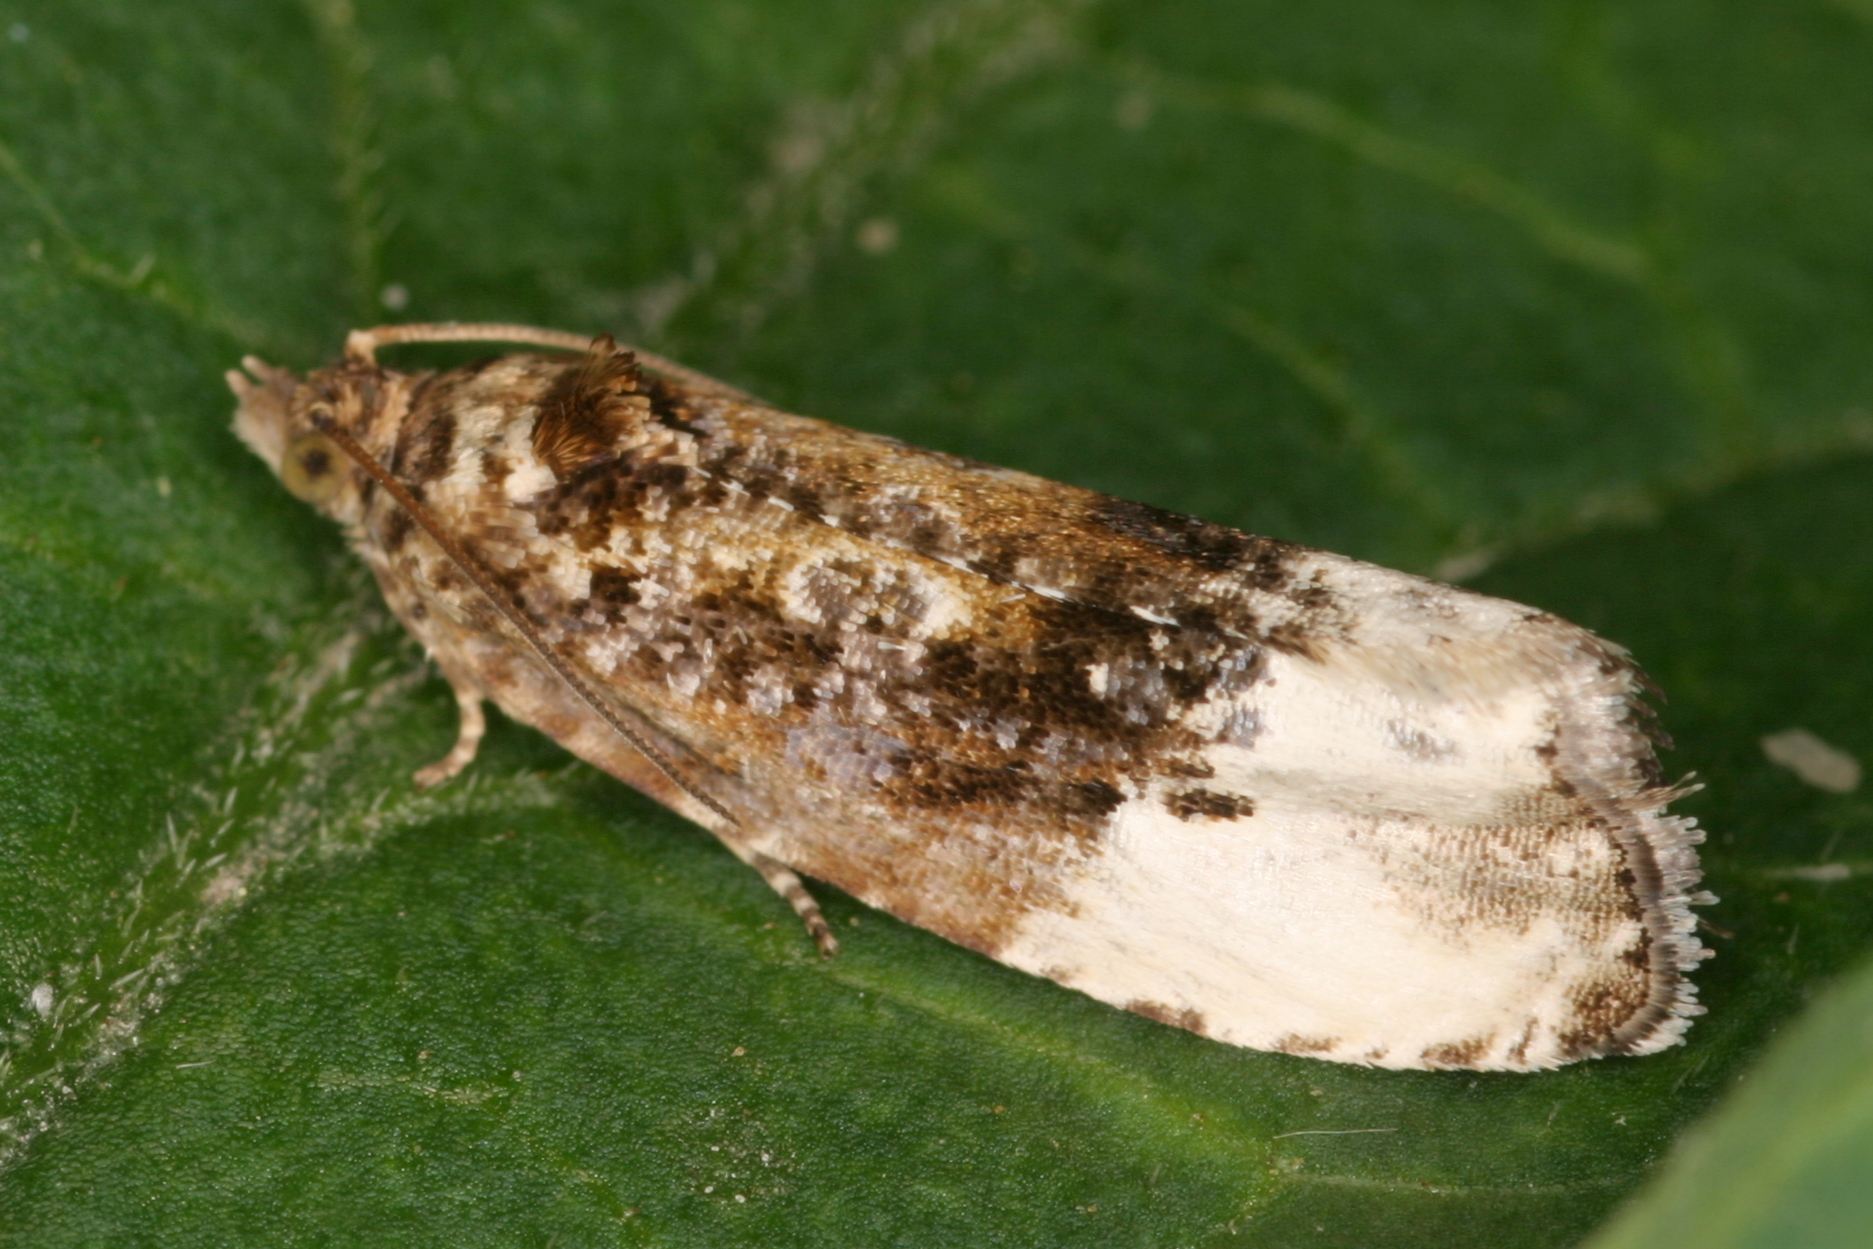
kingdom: Animalia
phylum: Arthropoda
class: Insecta
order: Lepidoptera
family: Tortricidae
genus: Hedya
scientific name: Hedya nubiferana
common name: Marbled orchard tortrix
